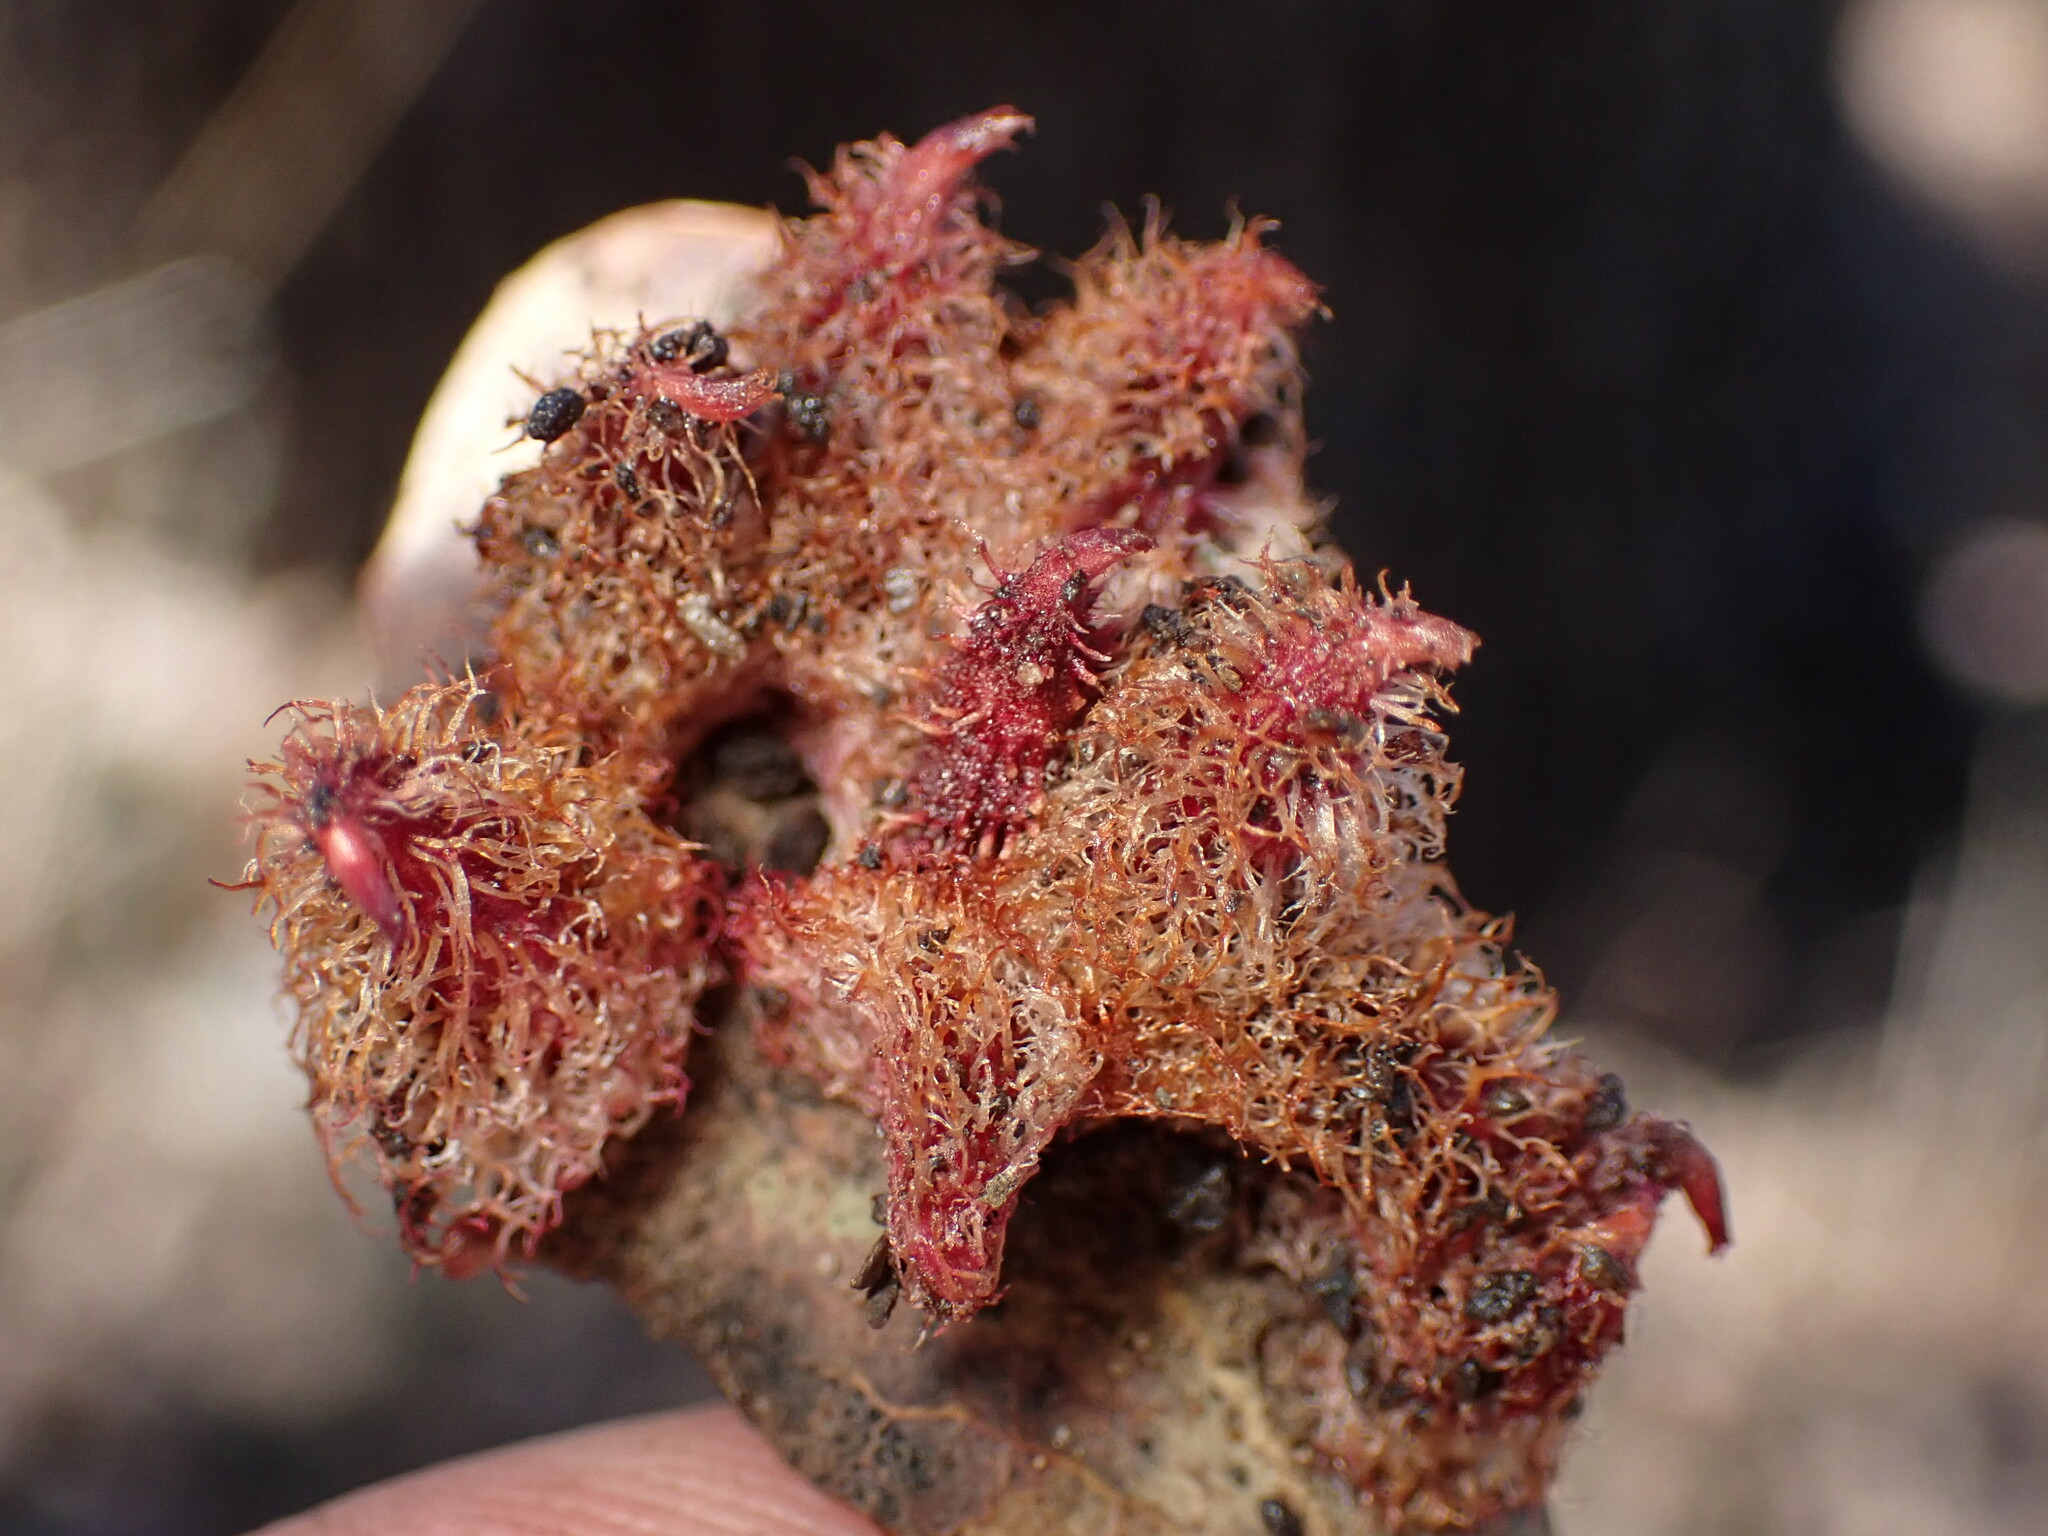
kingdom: Animalia
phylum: Arthropoda
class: Insecta
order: Hymenoptera
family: Cynipidae
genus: Andricus
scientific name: Andricus
